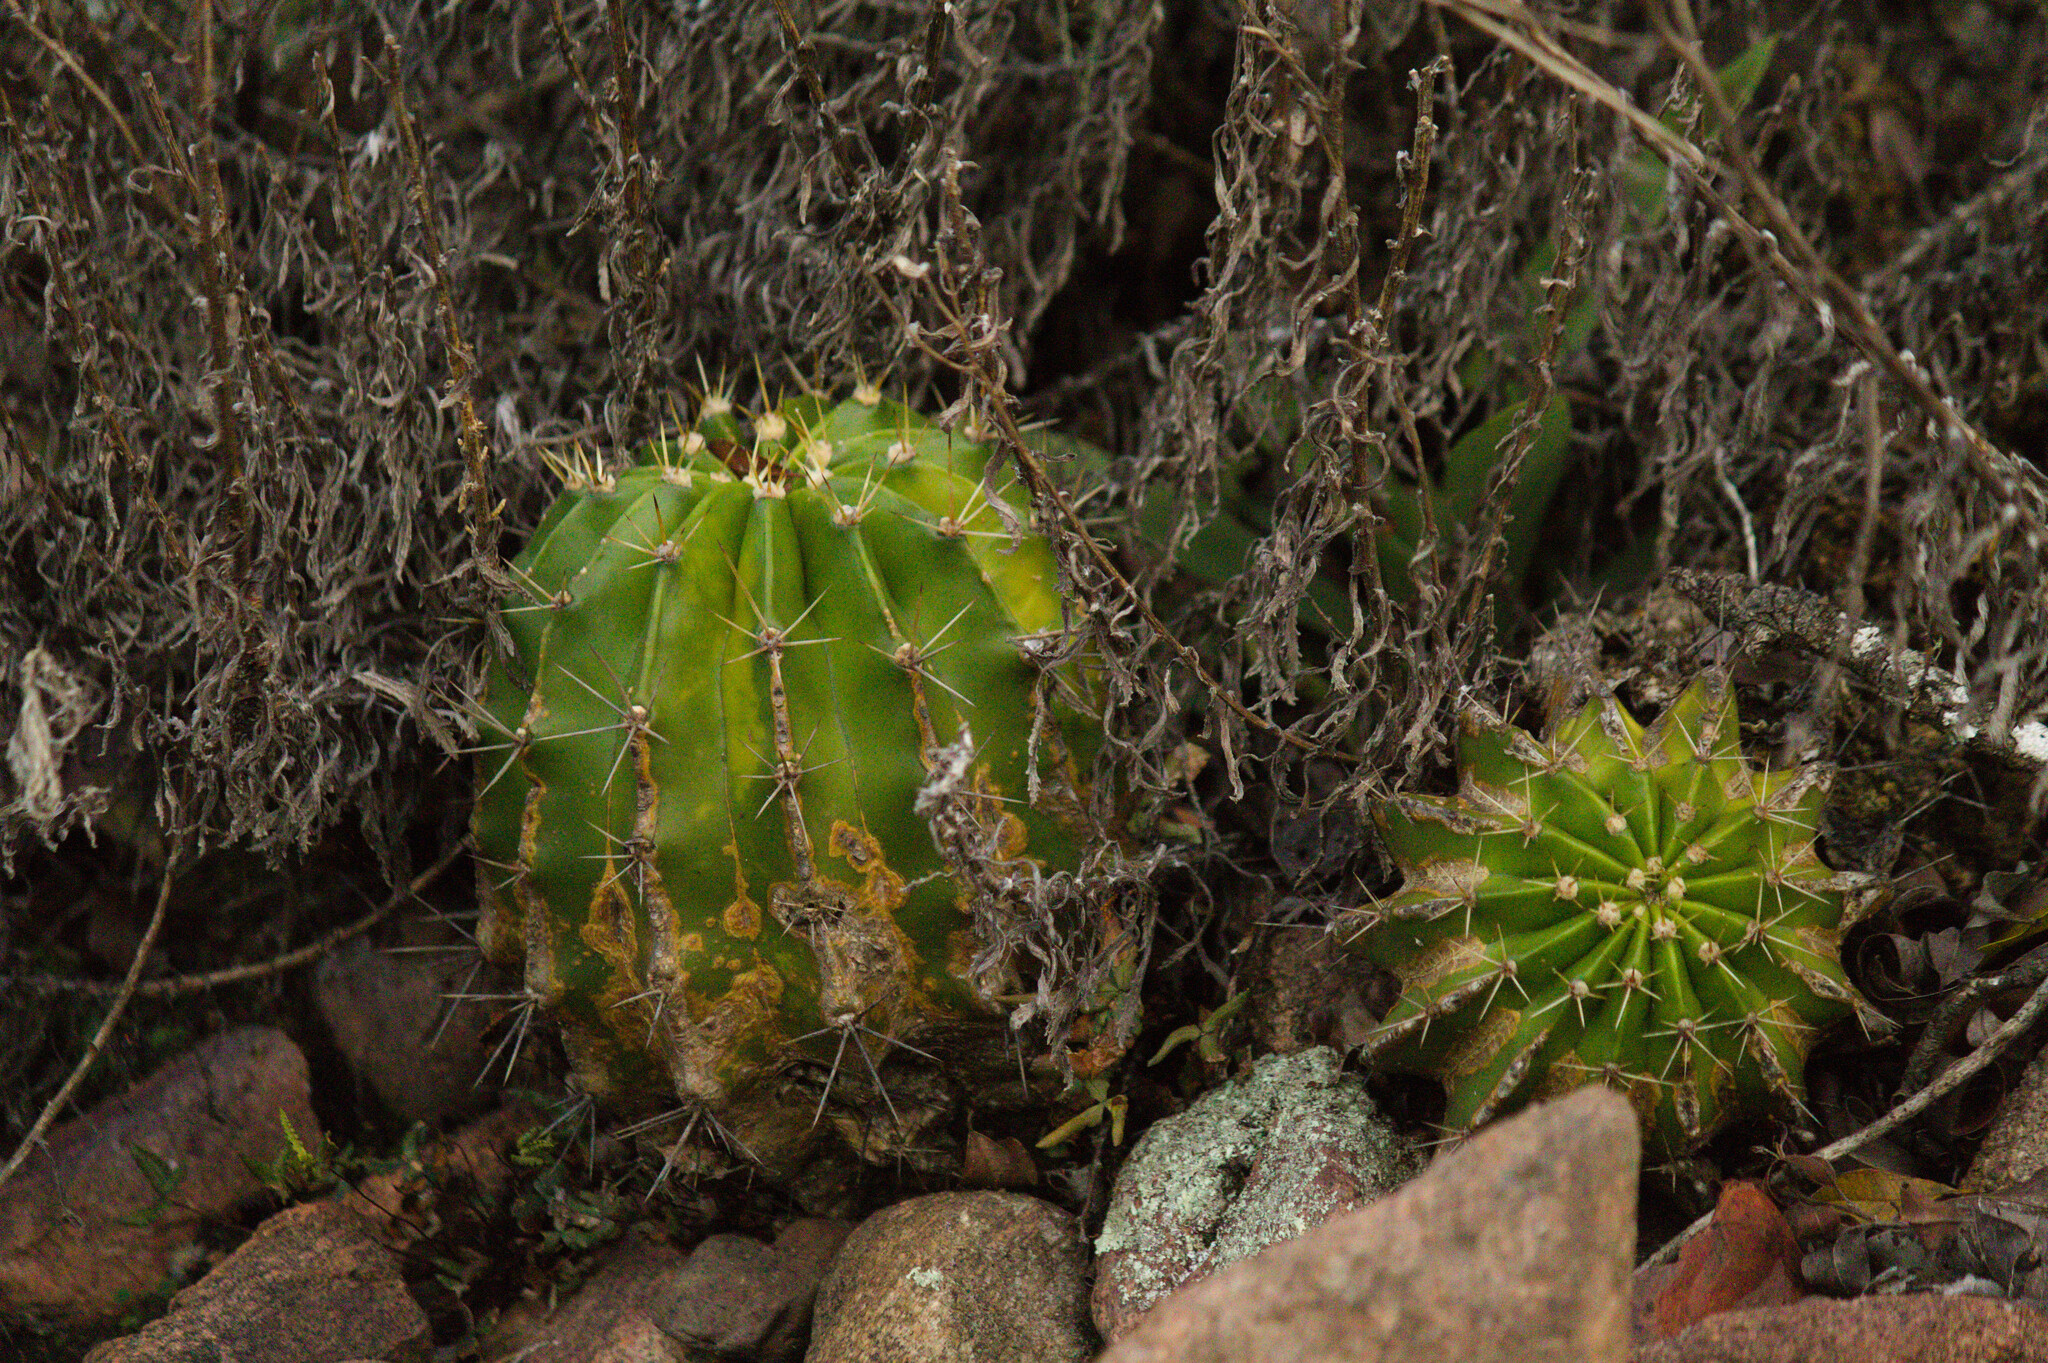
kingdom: Plantae
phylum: Tracheophyta
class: Magnoliopsida
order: Caryophyllales
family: Cactaceae
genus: Echinopsis
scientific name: Echinopsis oxygona
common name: Red easter-lily cactus
